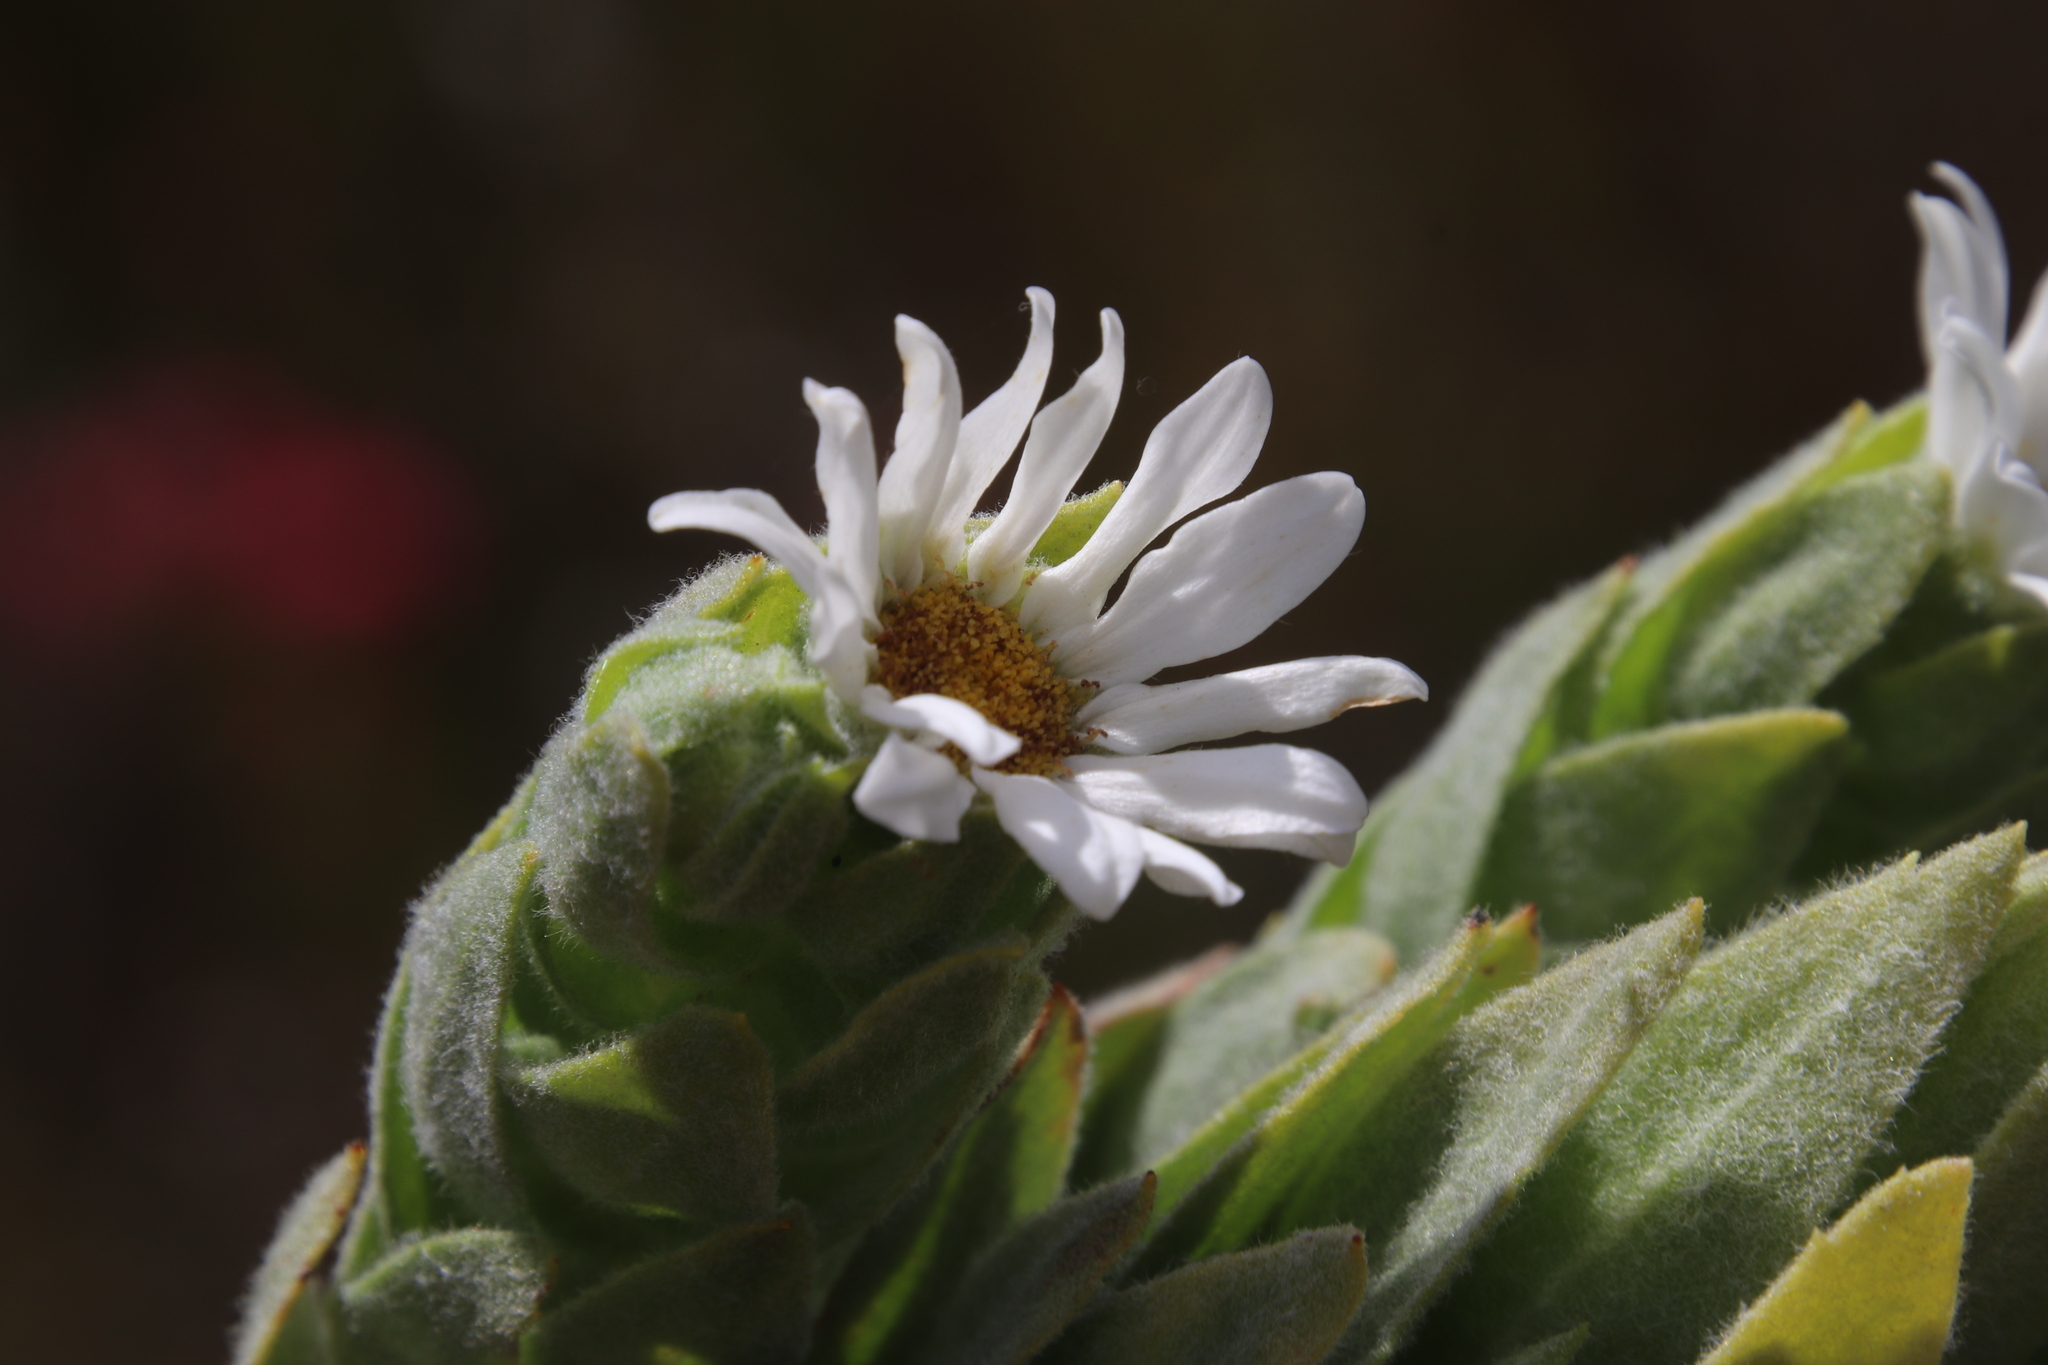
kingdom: Plantae
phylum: Tracheophyta
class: Magnoliopsida
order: Asterales
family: Asteraceae
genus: Osmitopsis
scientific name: Osmitopsis asteriscoides
